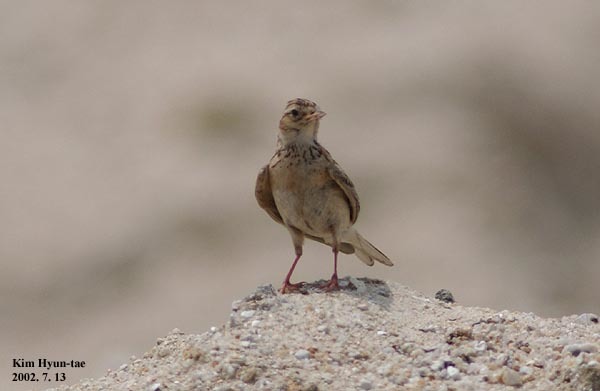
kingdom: Animalia
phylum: Chordata
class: Aves
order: Passeriformes
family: Alaudidae
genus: Alauda
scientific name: Alauda arvensis
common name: Eurasian skylark
